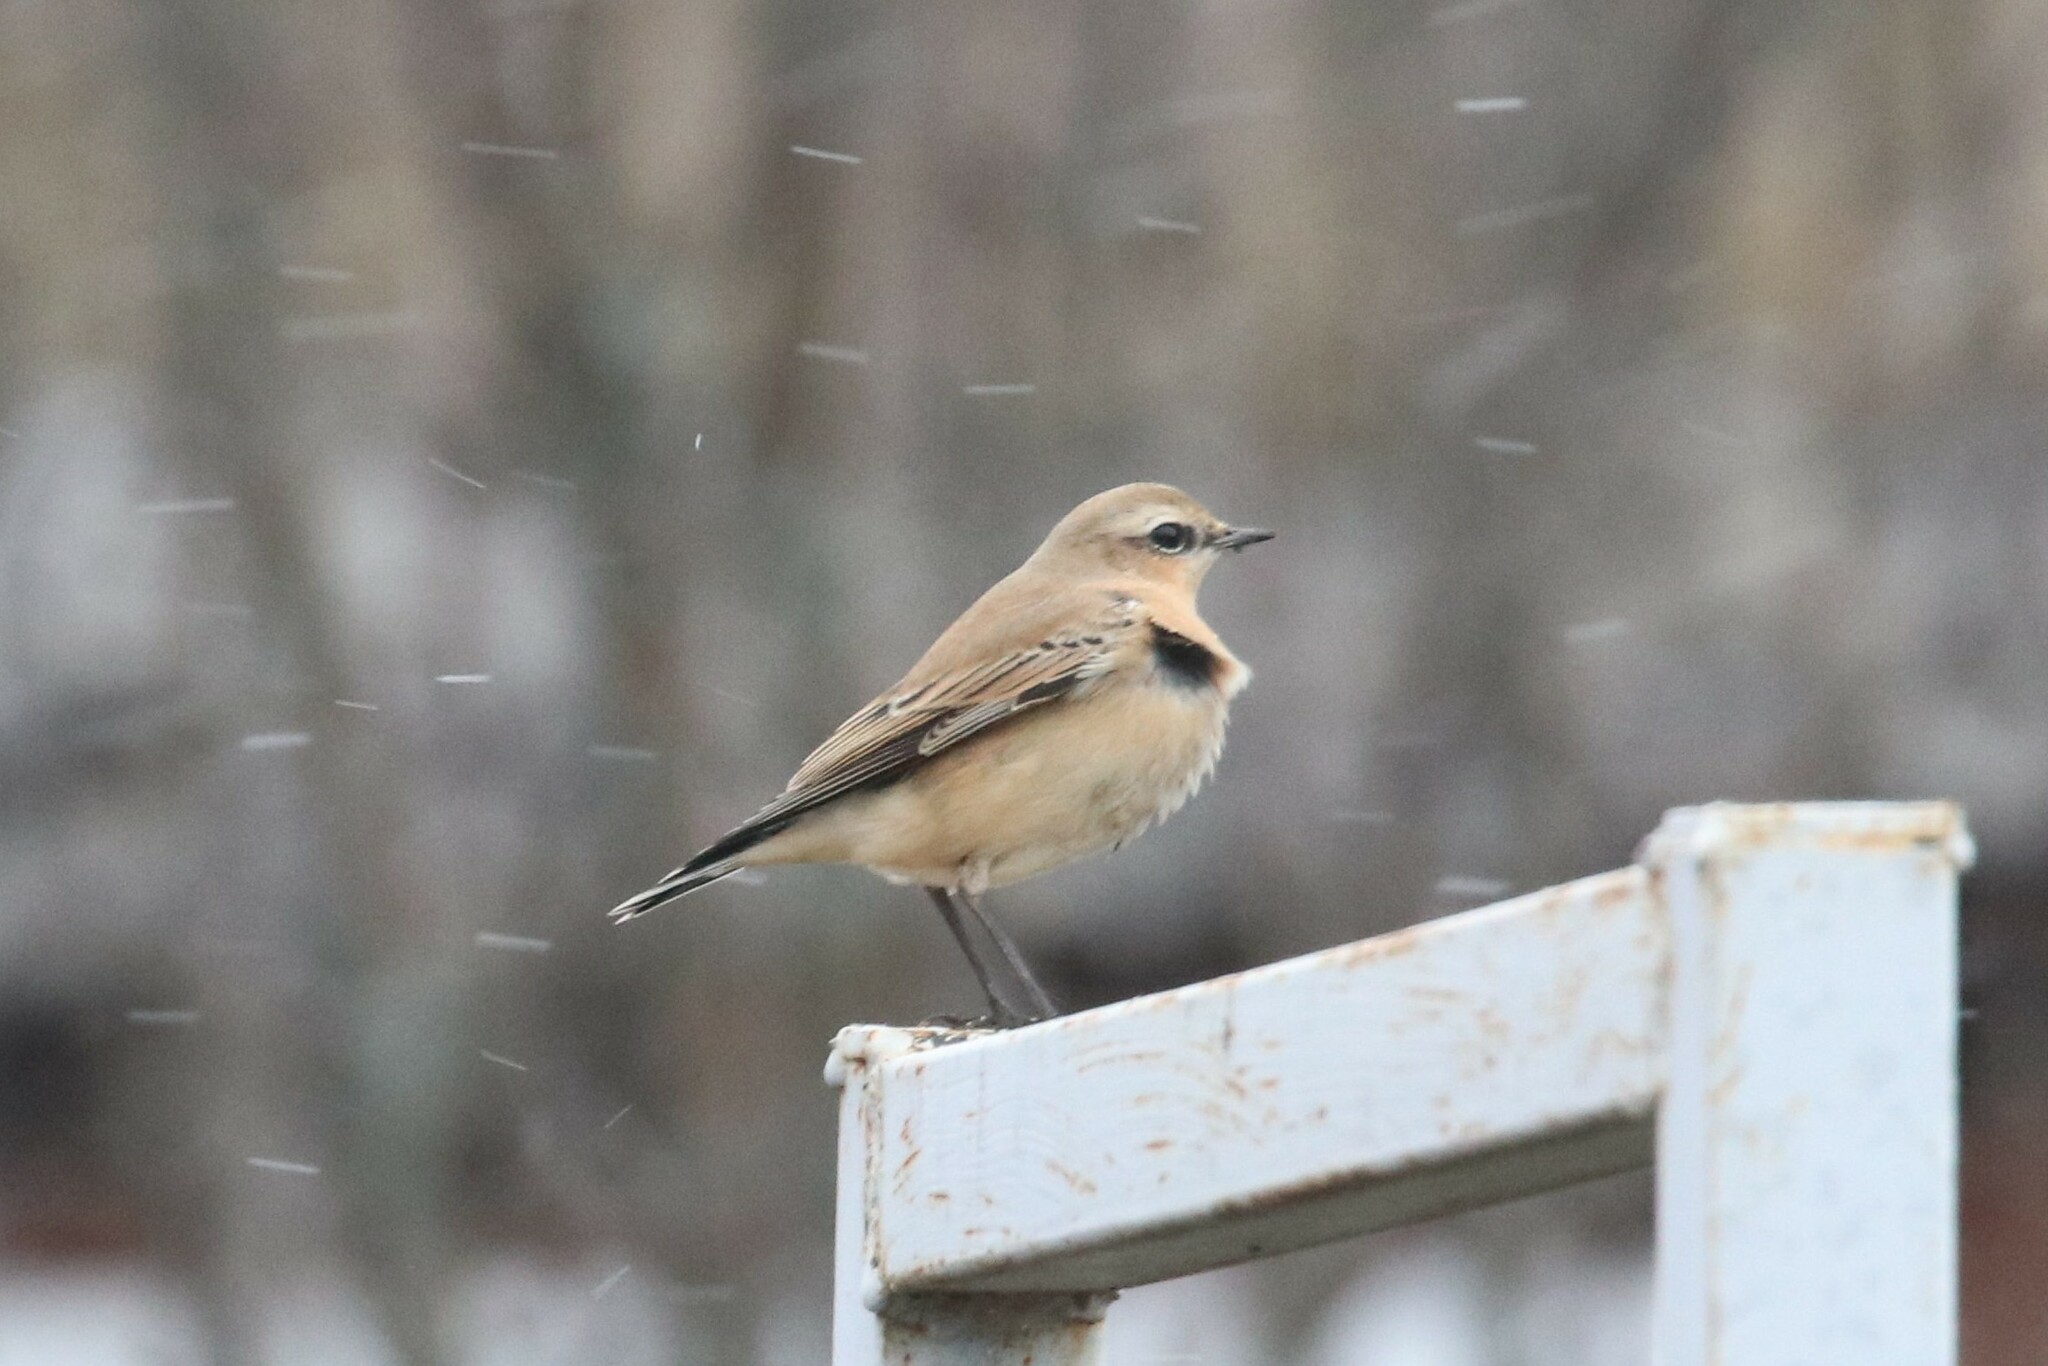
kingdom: Animalia
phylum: Chordata
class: Aves
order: Passeriformes
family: Muscicapidae
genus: Oenanthe
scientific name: Oenanthe oenanthe
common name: Northern wheatear
